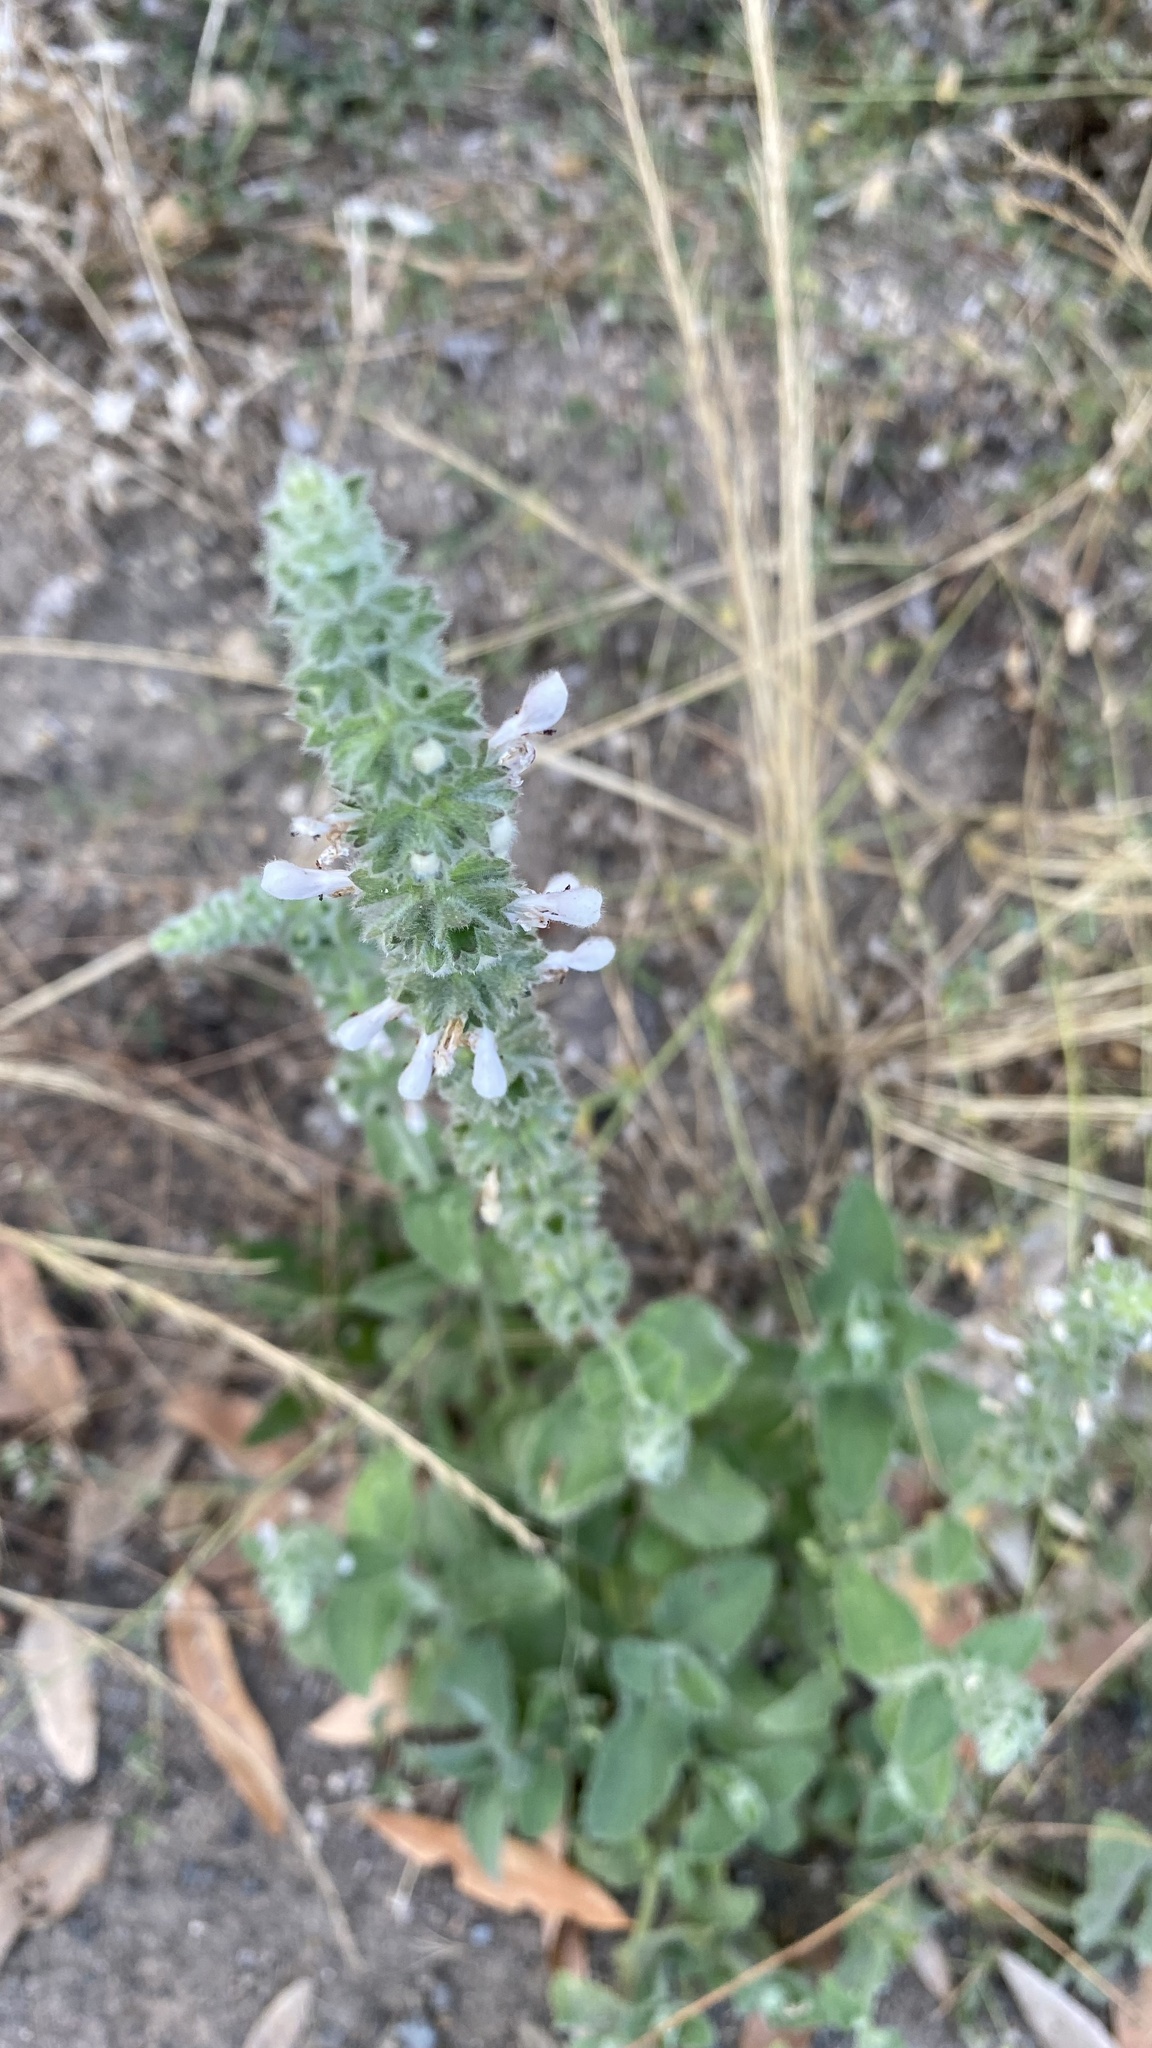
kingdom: Plantae
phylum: Tracheophyta
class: Magnoliopsida
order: Lamiales
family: Lamiaceae
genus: Stachys
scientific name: Stachys albens
